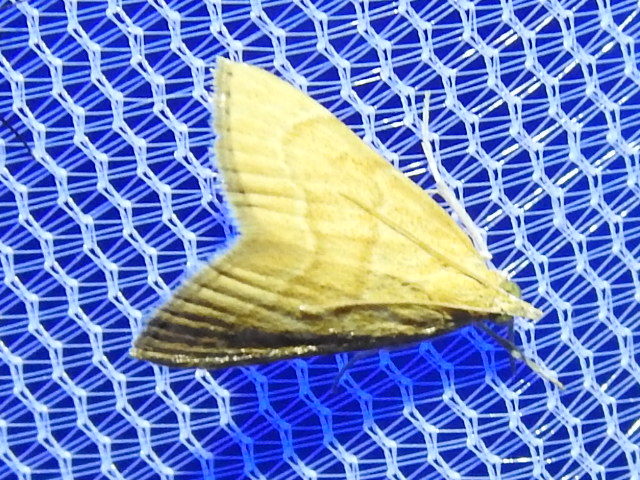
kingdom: Animalia
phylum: Arthropoda
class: Insecta
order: Lepidoptera
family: Crambidae
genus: Glaphyria
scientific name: Glaphyria invisalis
